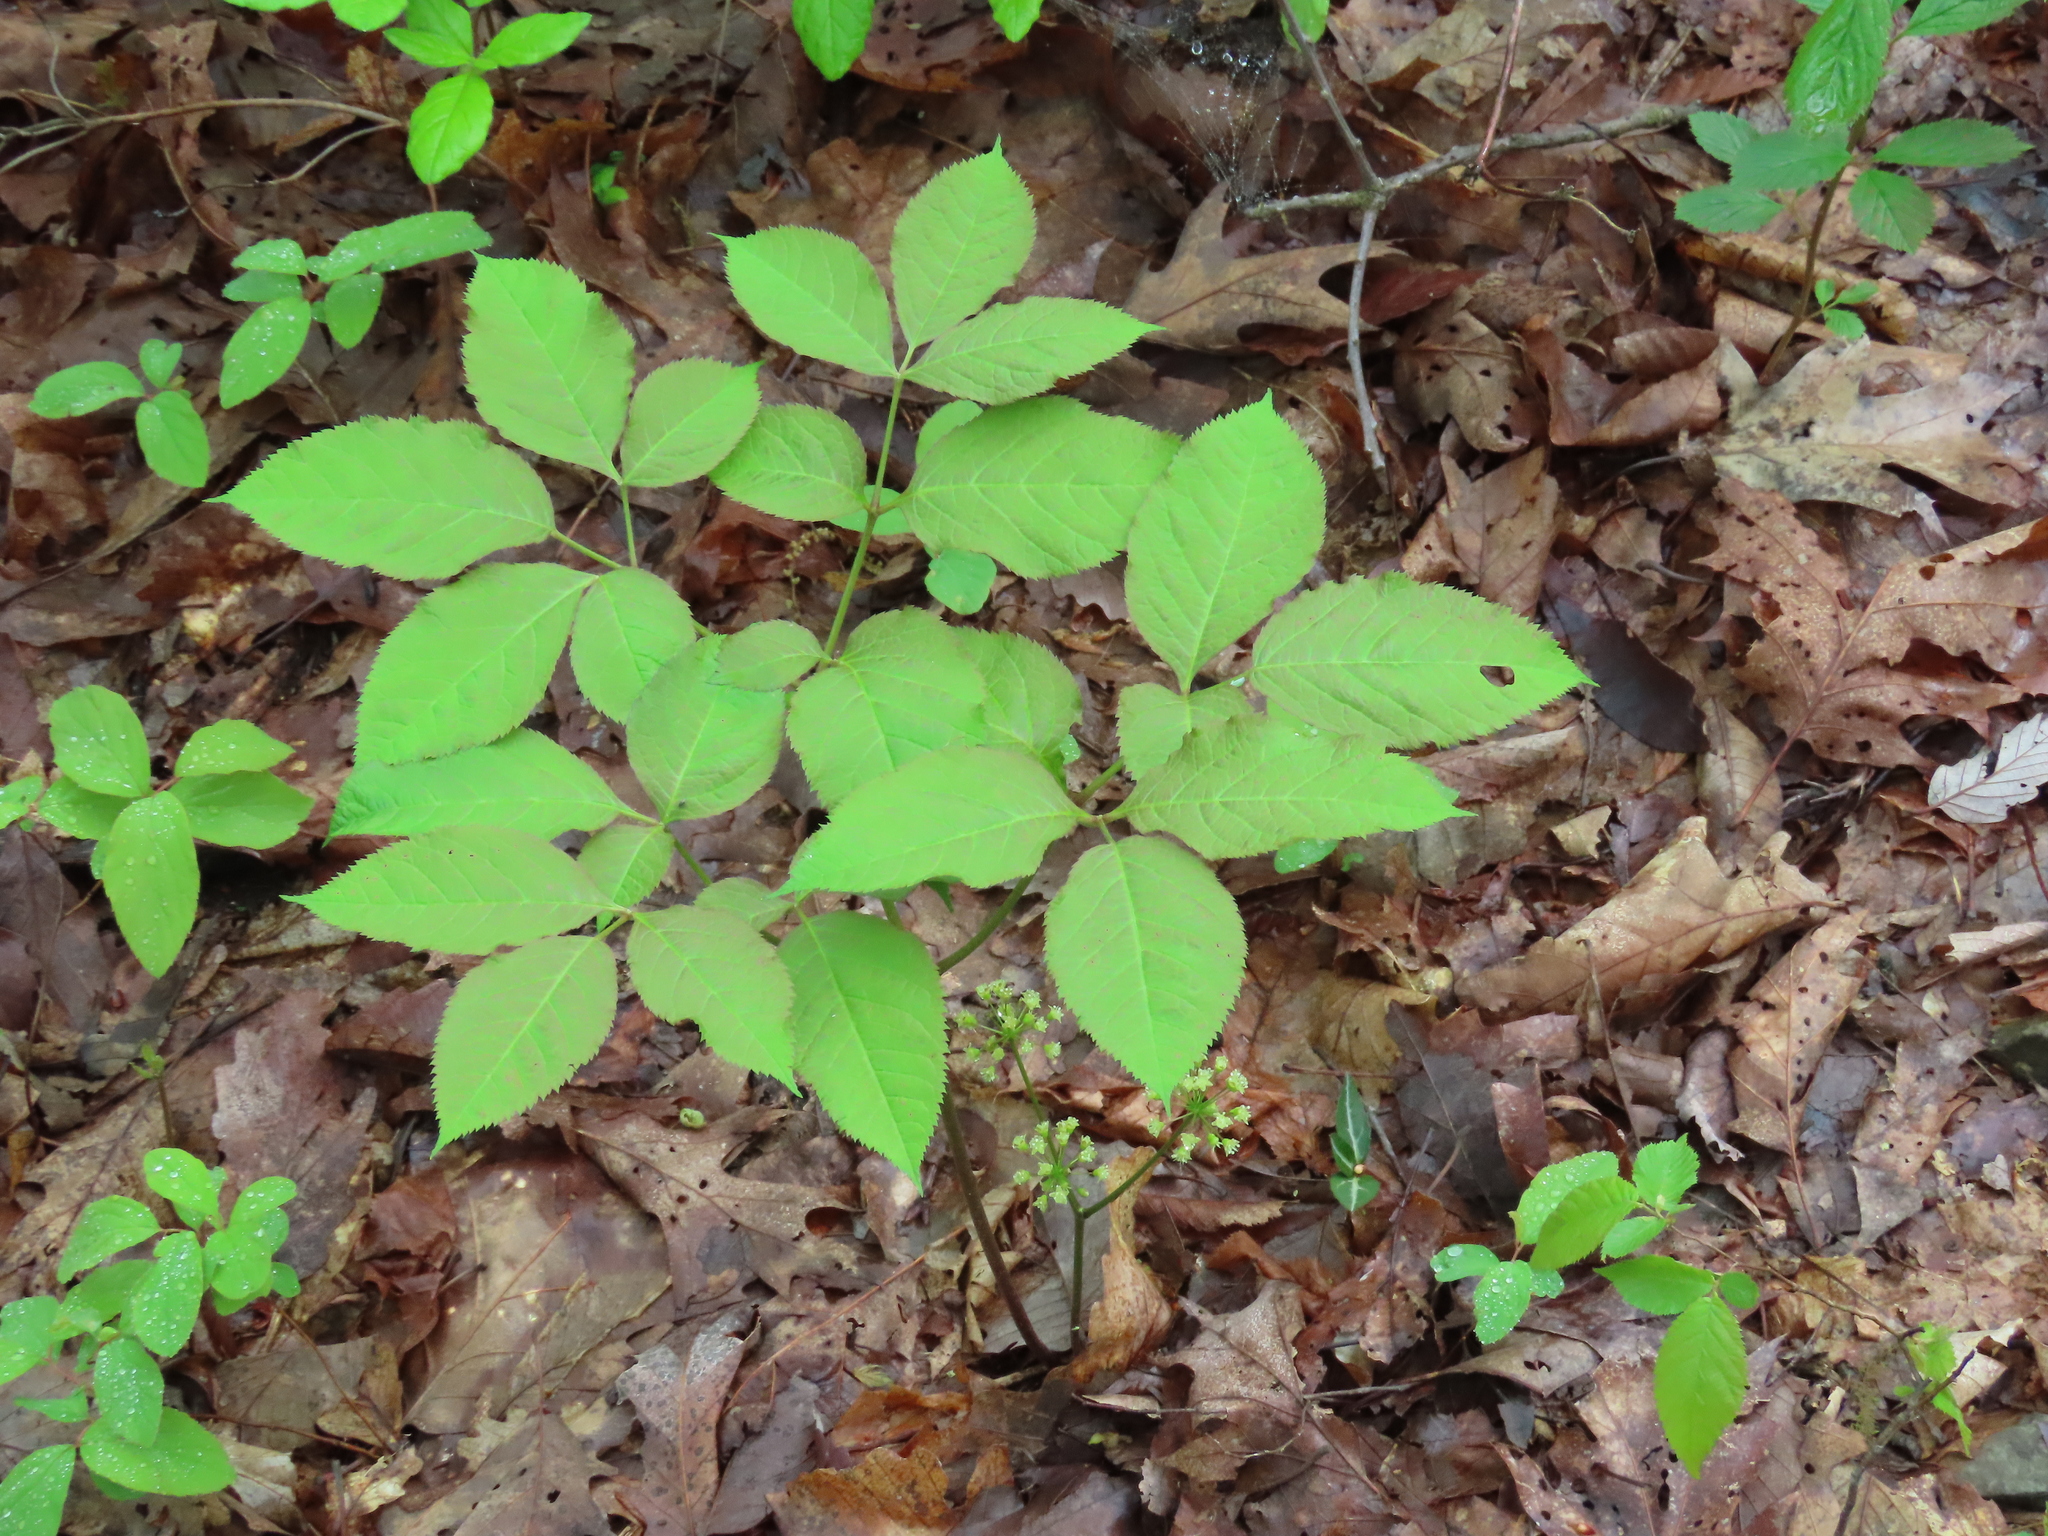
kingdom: Plantae
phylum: Tracheophyta
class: Magnoliopsida
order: Apiales
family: Araliaceae
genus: Aralia
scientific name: Aralia nudicaulis
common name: Wild sarsaparilla
